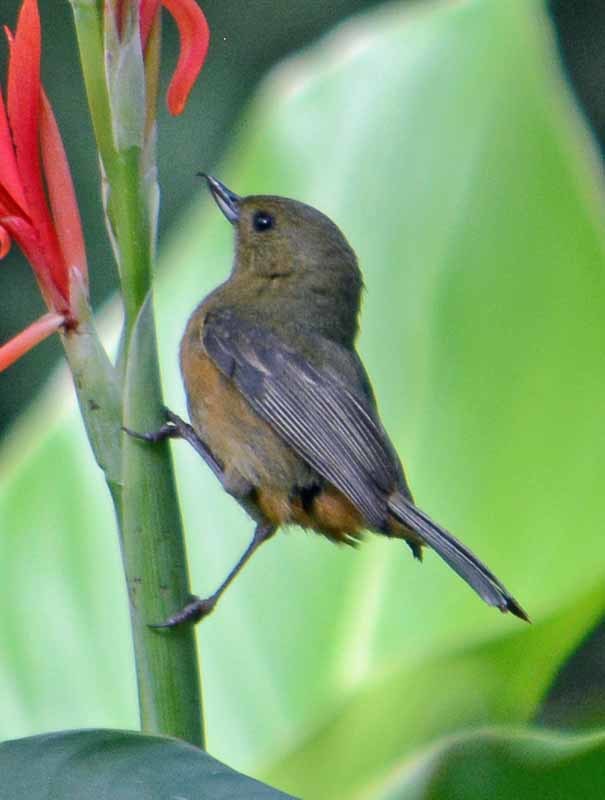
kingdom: Animalia
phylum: Chordata
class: Aves
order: Passeriformes
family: Thraupidae
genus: Diglossa
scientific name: Diglossa baritula
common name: Cinnamon-bellied flowerpiercer
